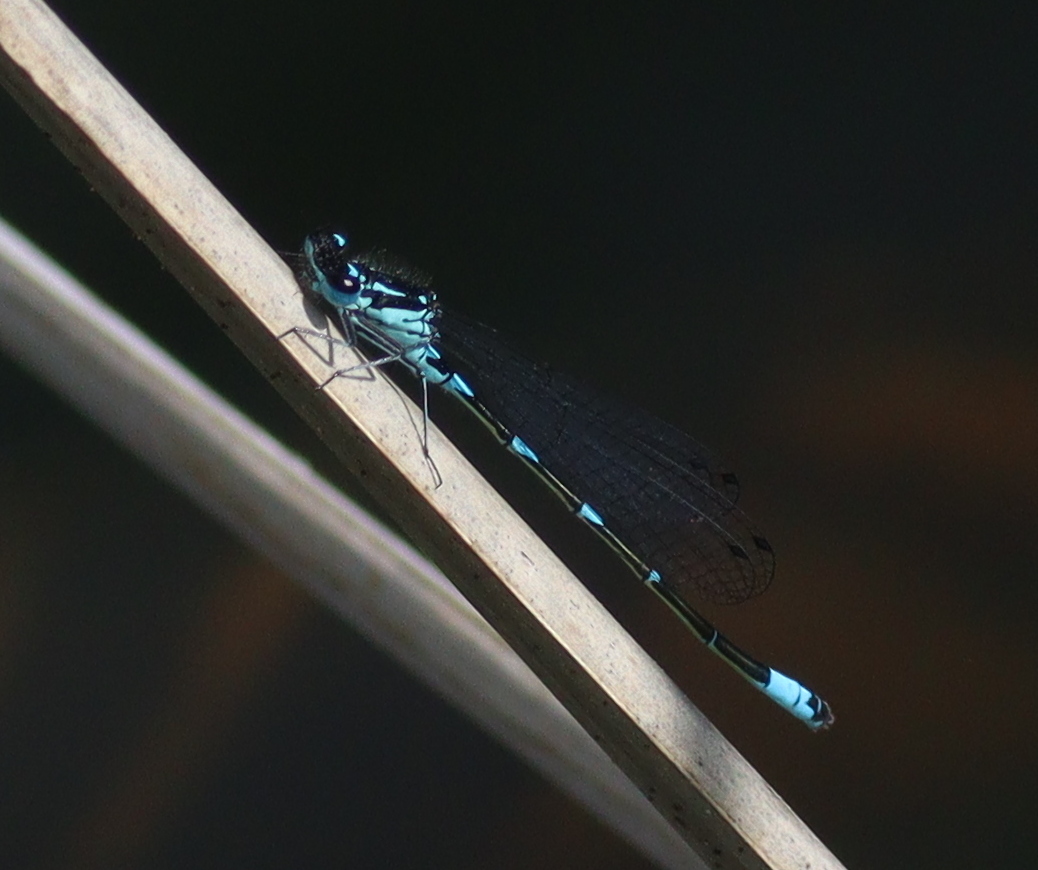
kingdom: Animalia
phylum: Arthropoda
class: Insecta
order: Odonata
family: Coenagrionidae
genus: Coenagrion
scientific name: Coenagrion pulchellum
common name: Variable bluet
